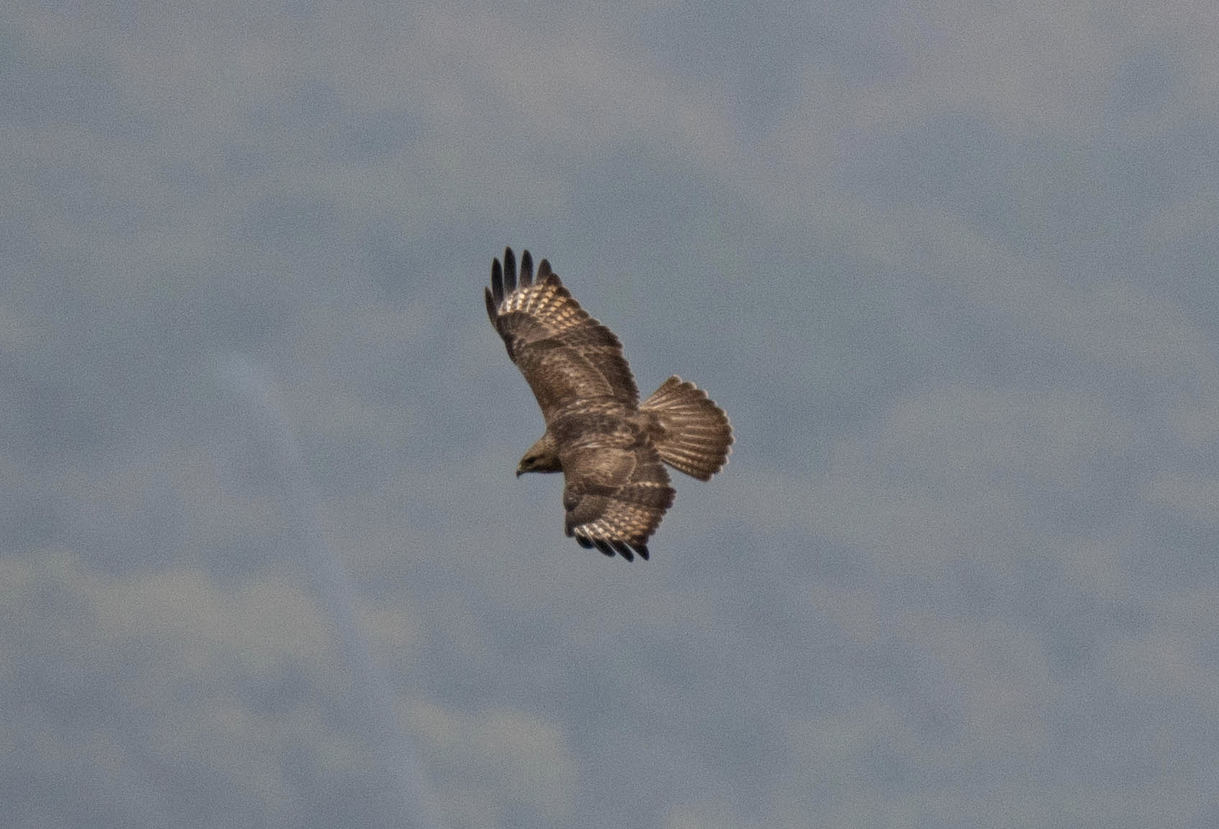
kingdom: Animalia
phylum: Chordata
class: Aves
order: Accipitriformes
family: Accipitridae
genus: Buteo
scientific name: Buteo japonicus
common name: Eastern buzzard
